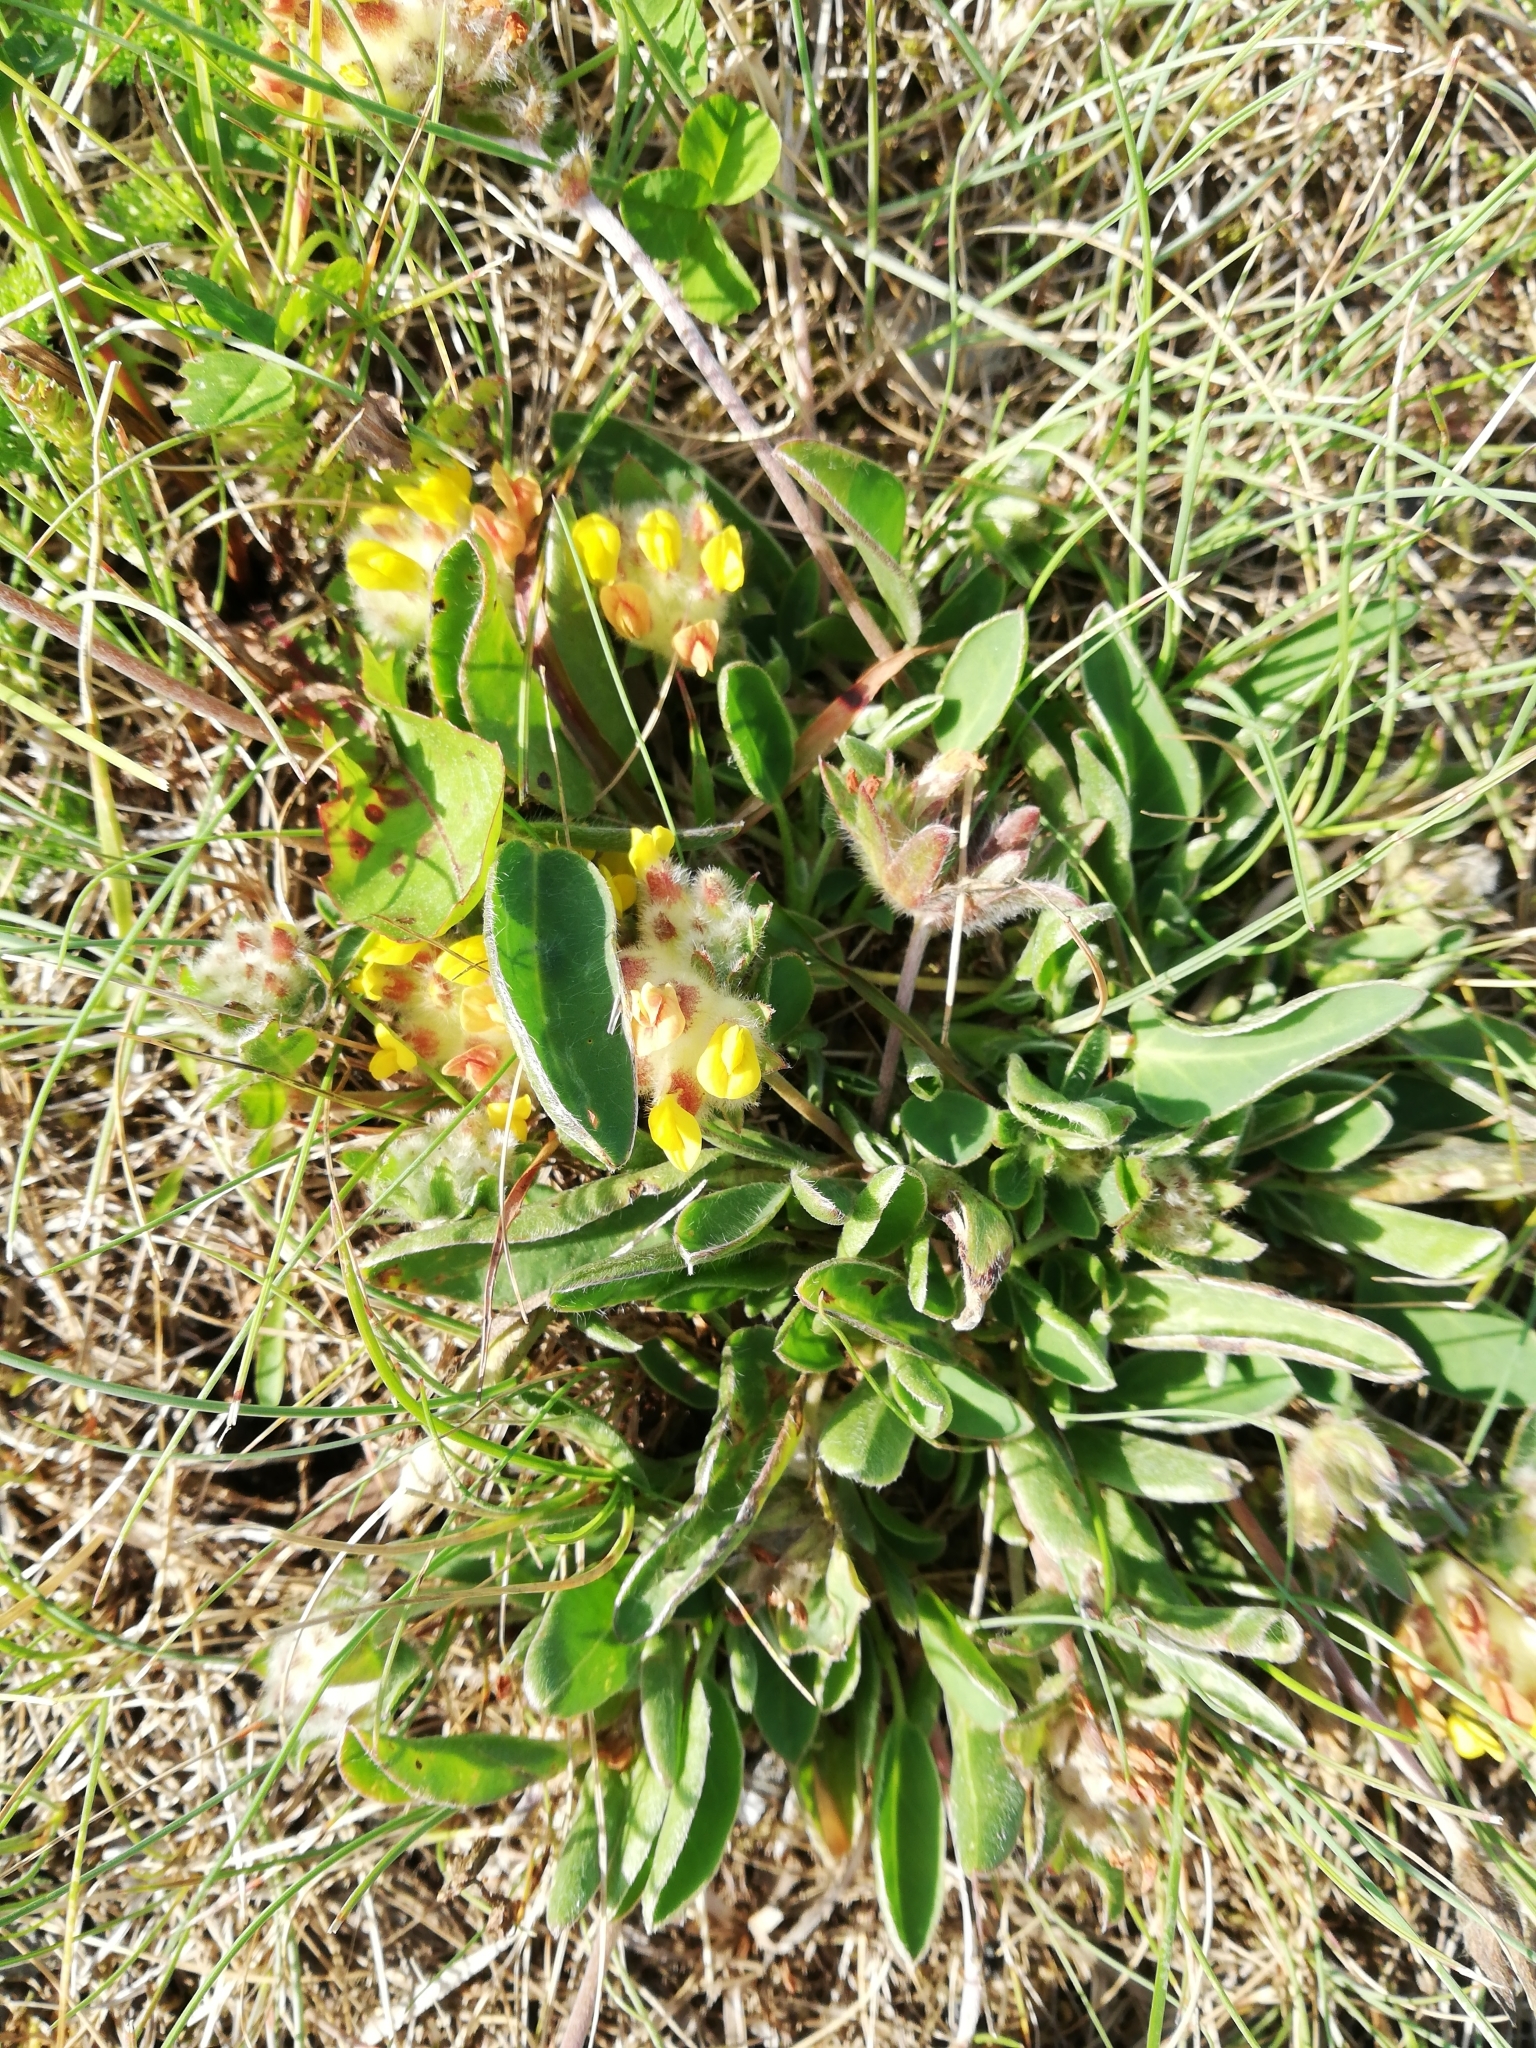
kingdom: Plantae
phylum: Tracheophyta
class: Magnoliopsida
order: Fabales
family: Fabaceae
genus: Anthyllis
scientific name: Anthyllis vulneraria
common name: Kidney vetch
